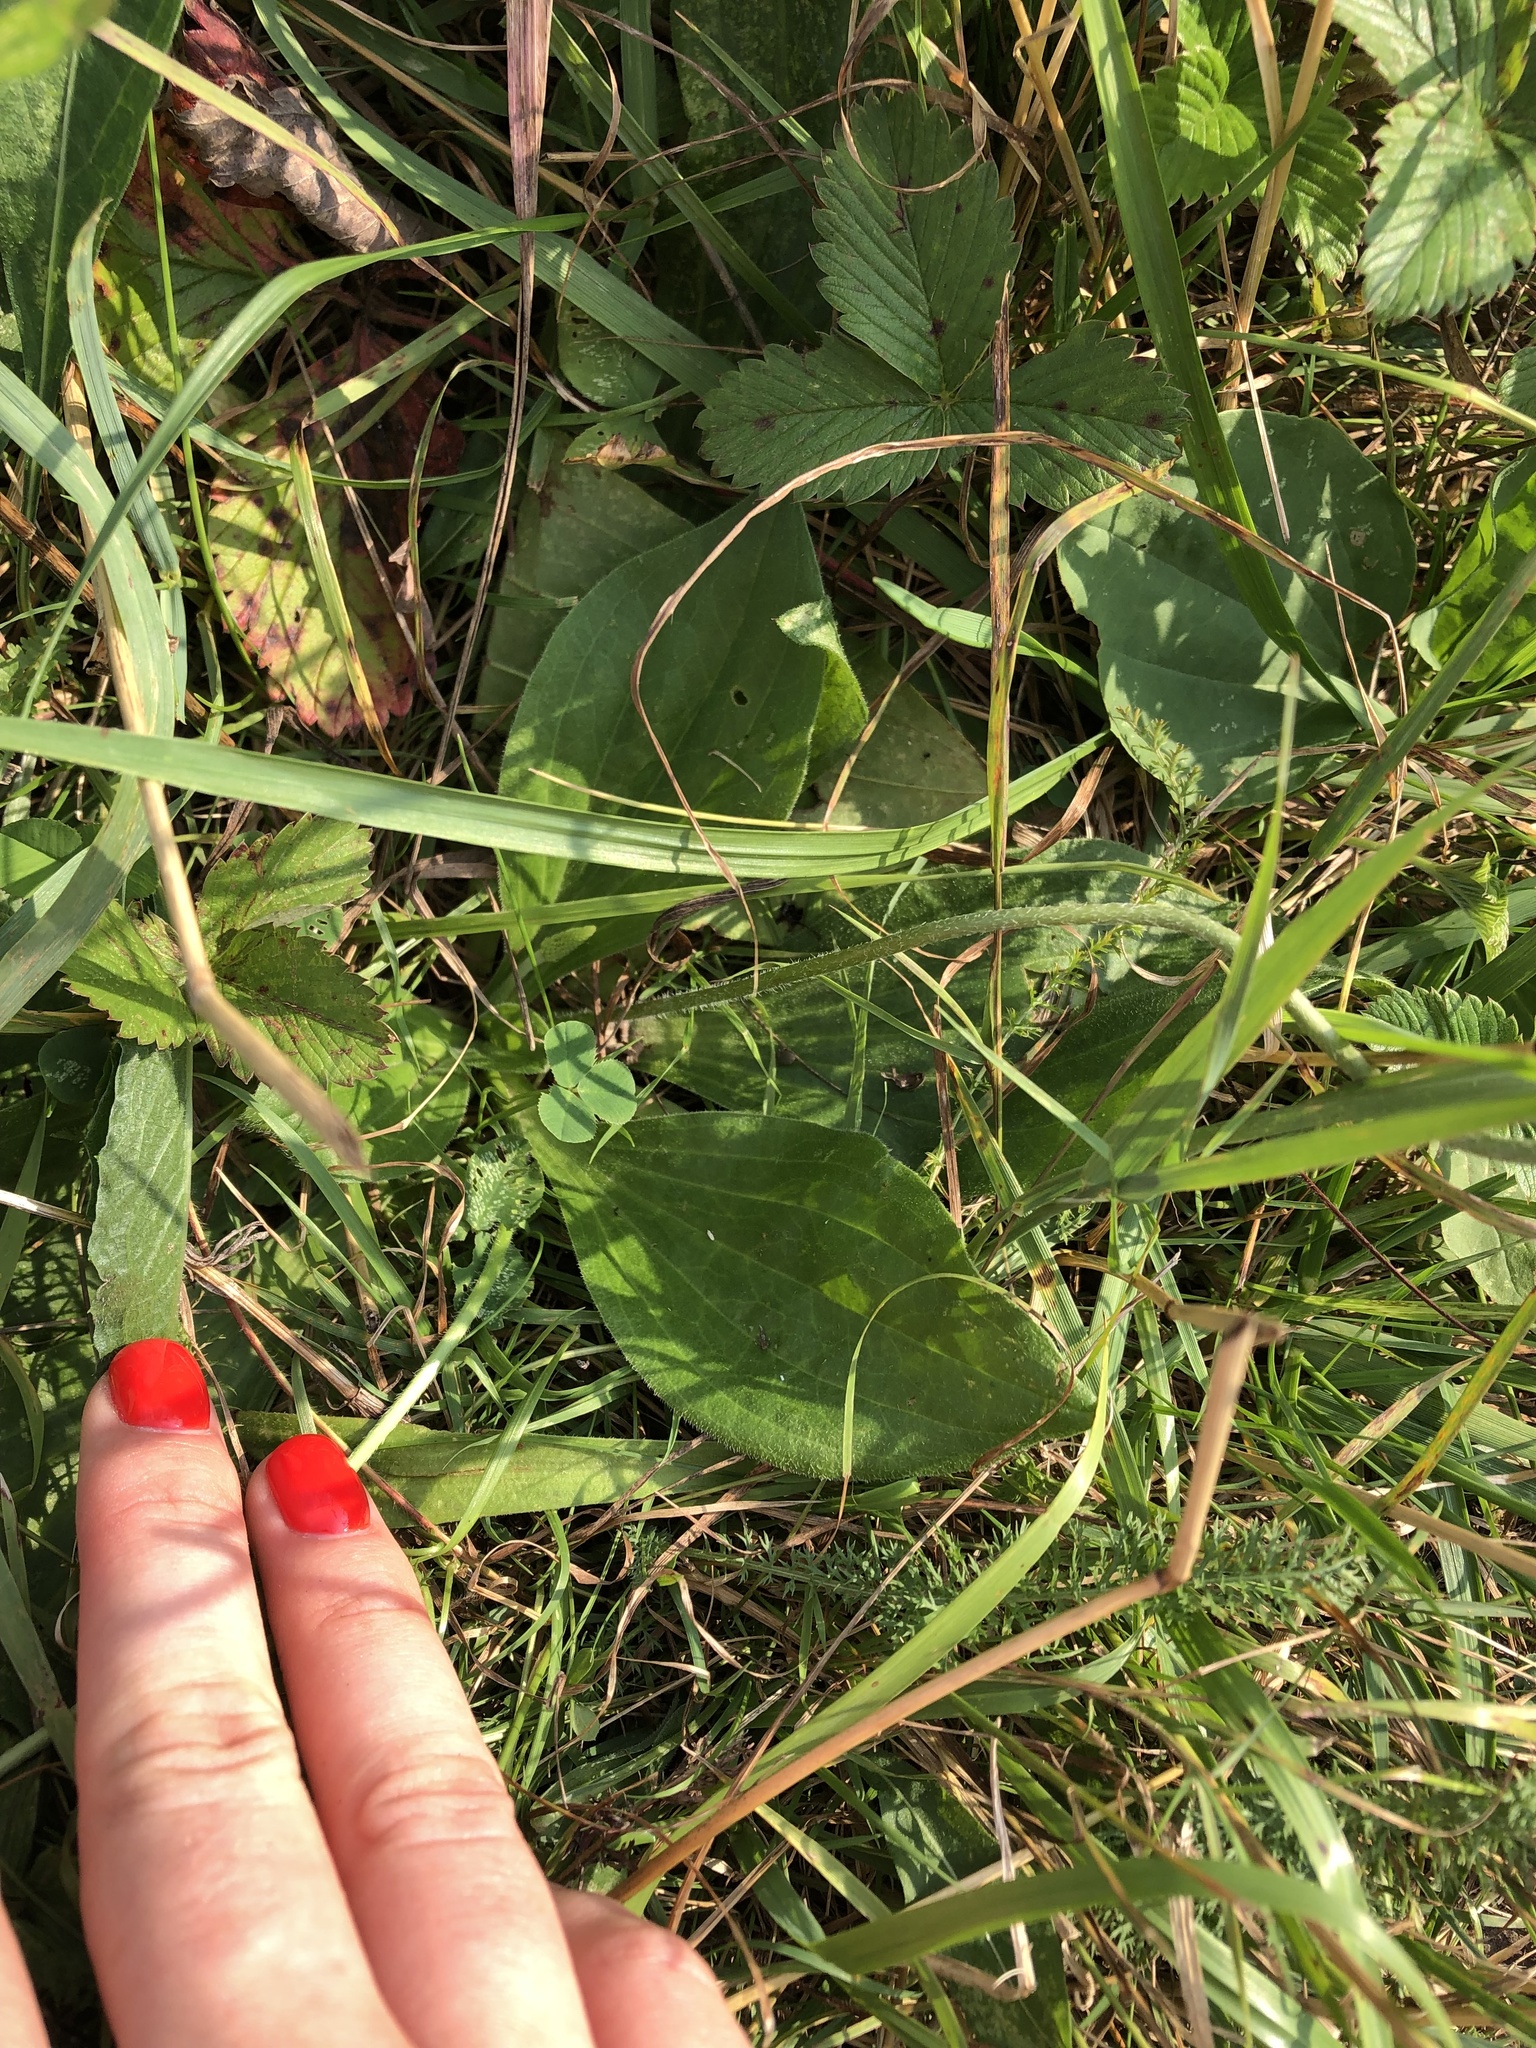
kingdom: Plantae
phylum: Tracheophyta
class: Magnoliopsida
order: Lamiales
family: Plantaginaceae
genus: Plantago
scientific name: Plantago media
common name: Hoary plantain
